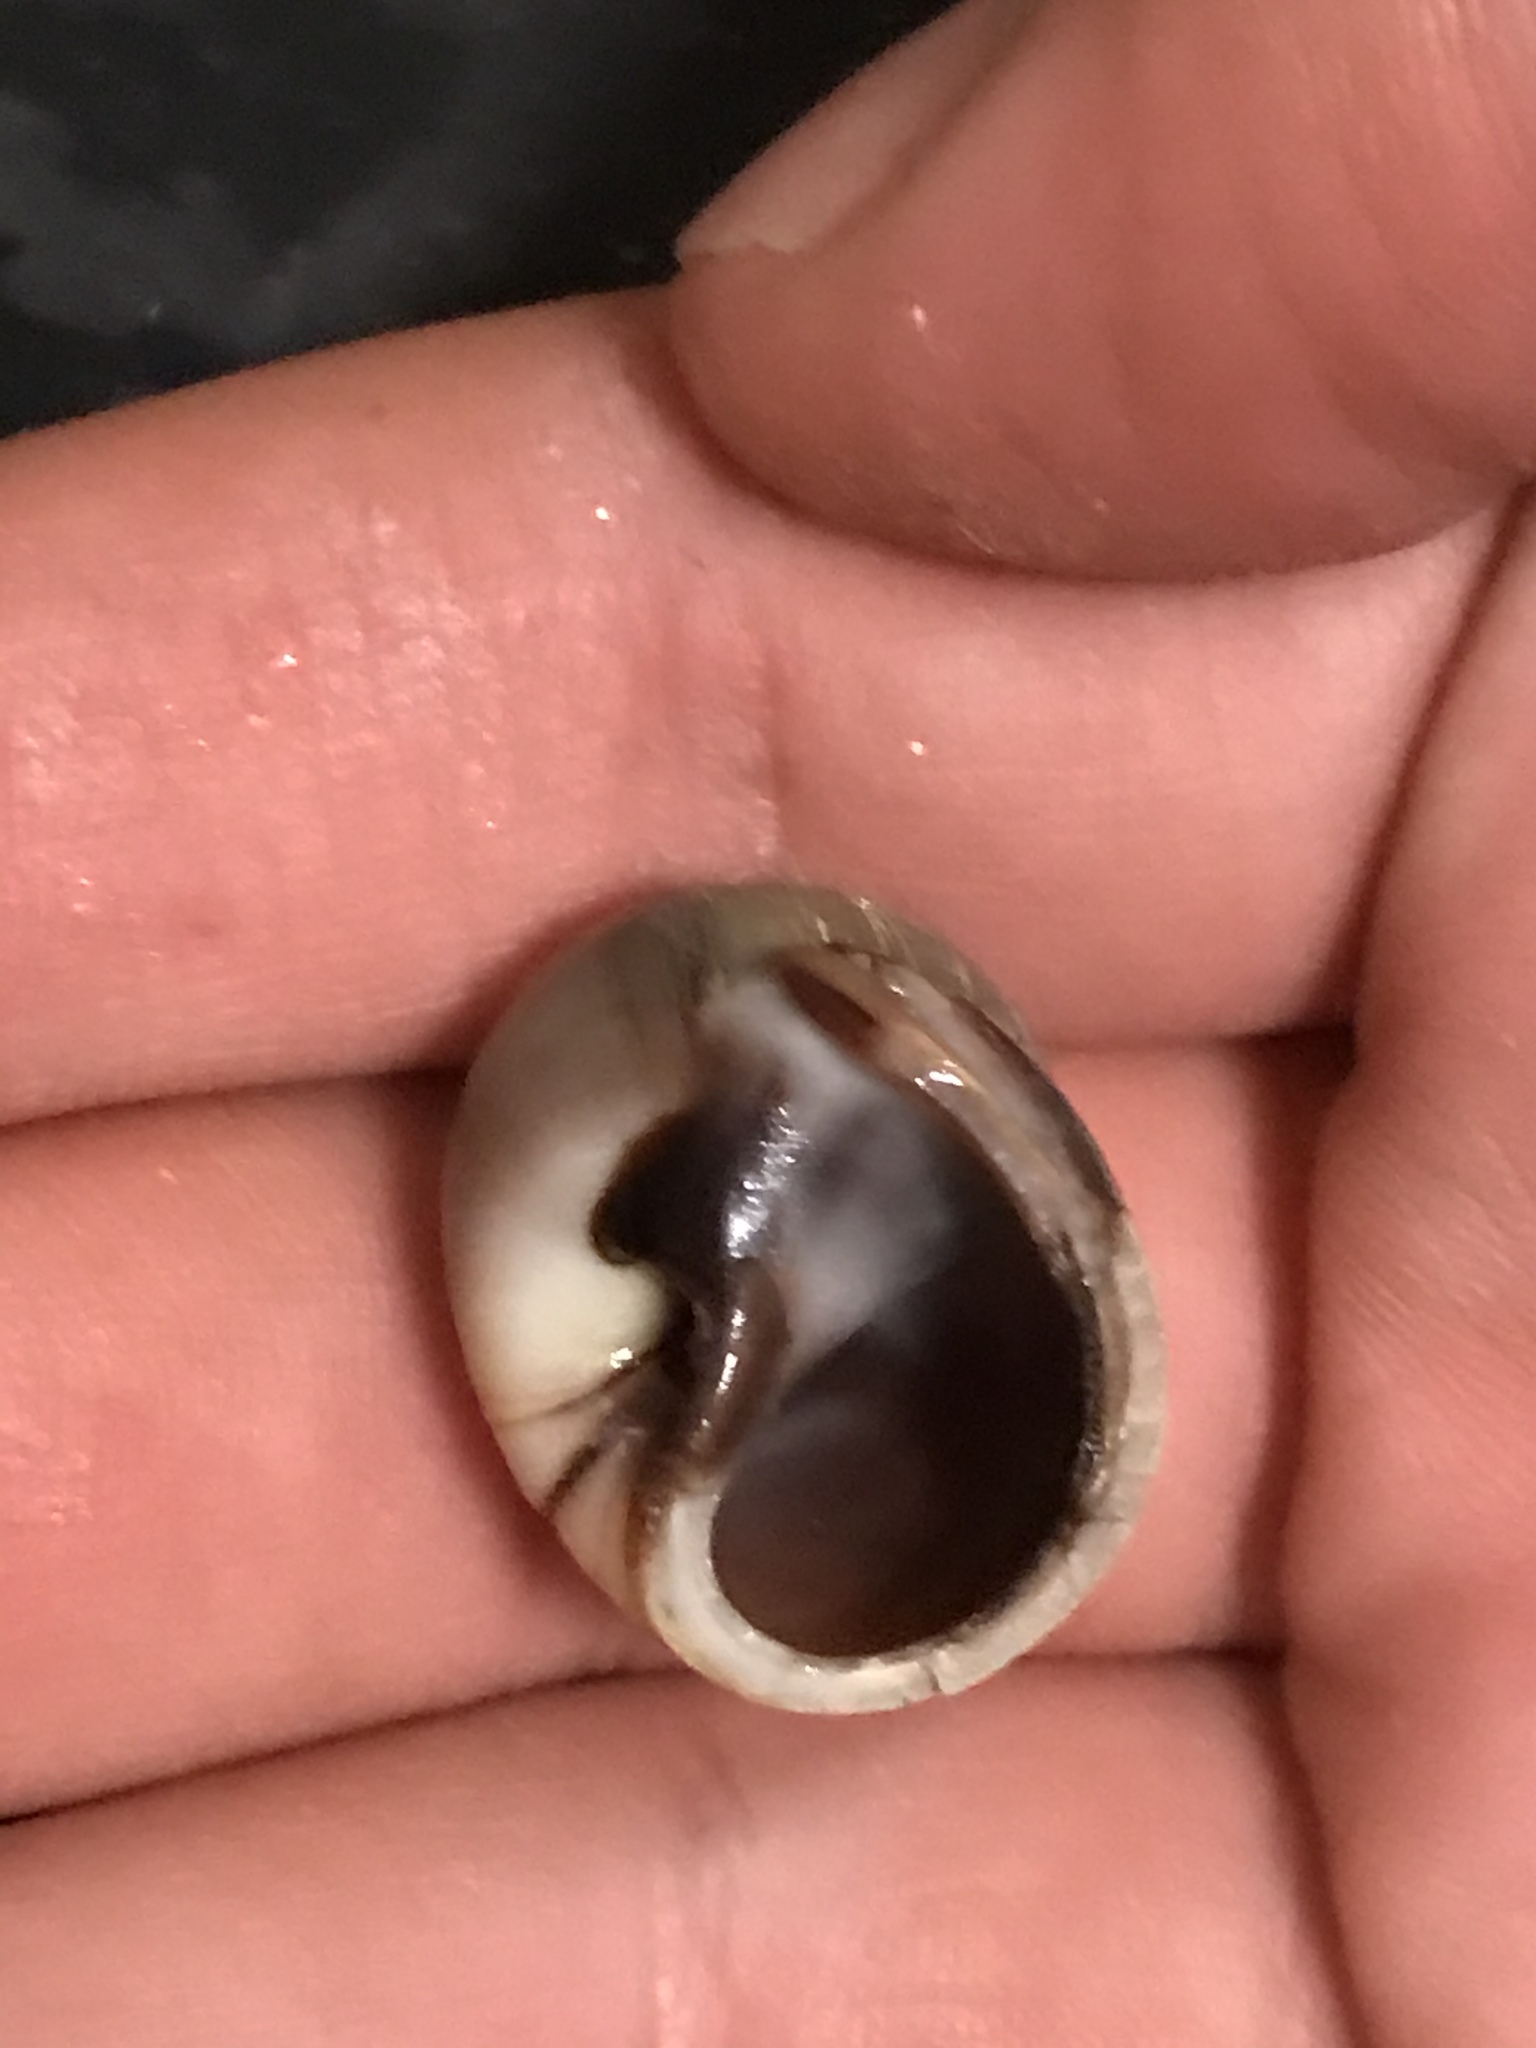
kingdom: Animalia
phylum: Mollusca
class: Gastropoda
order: Littorinimorpha
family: Naticidae
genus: Glossaulax
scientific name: Glossaulax reclusiana
